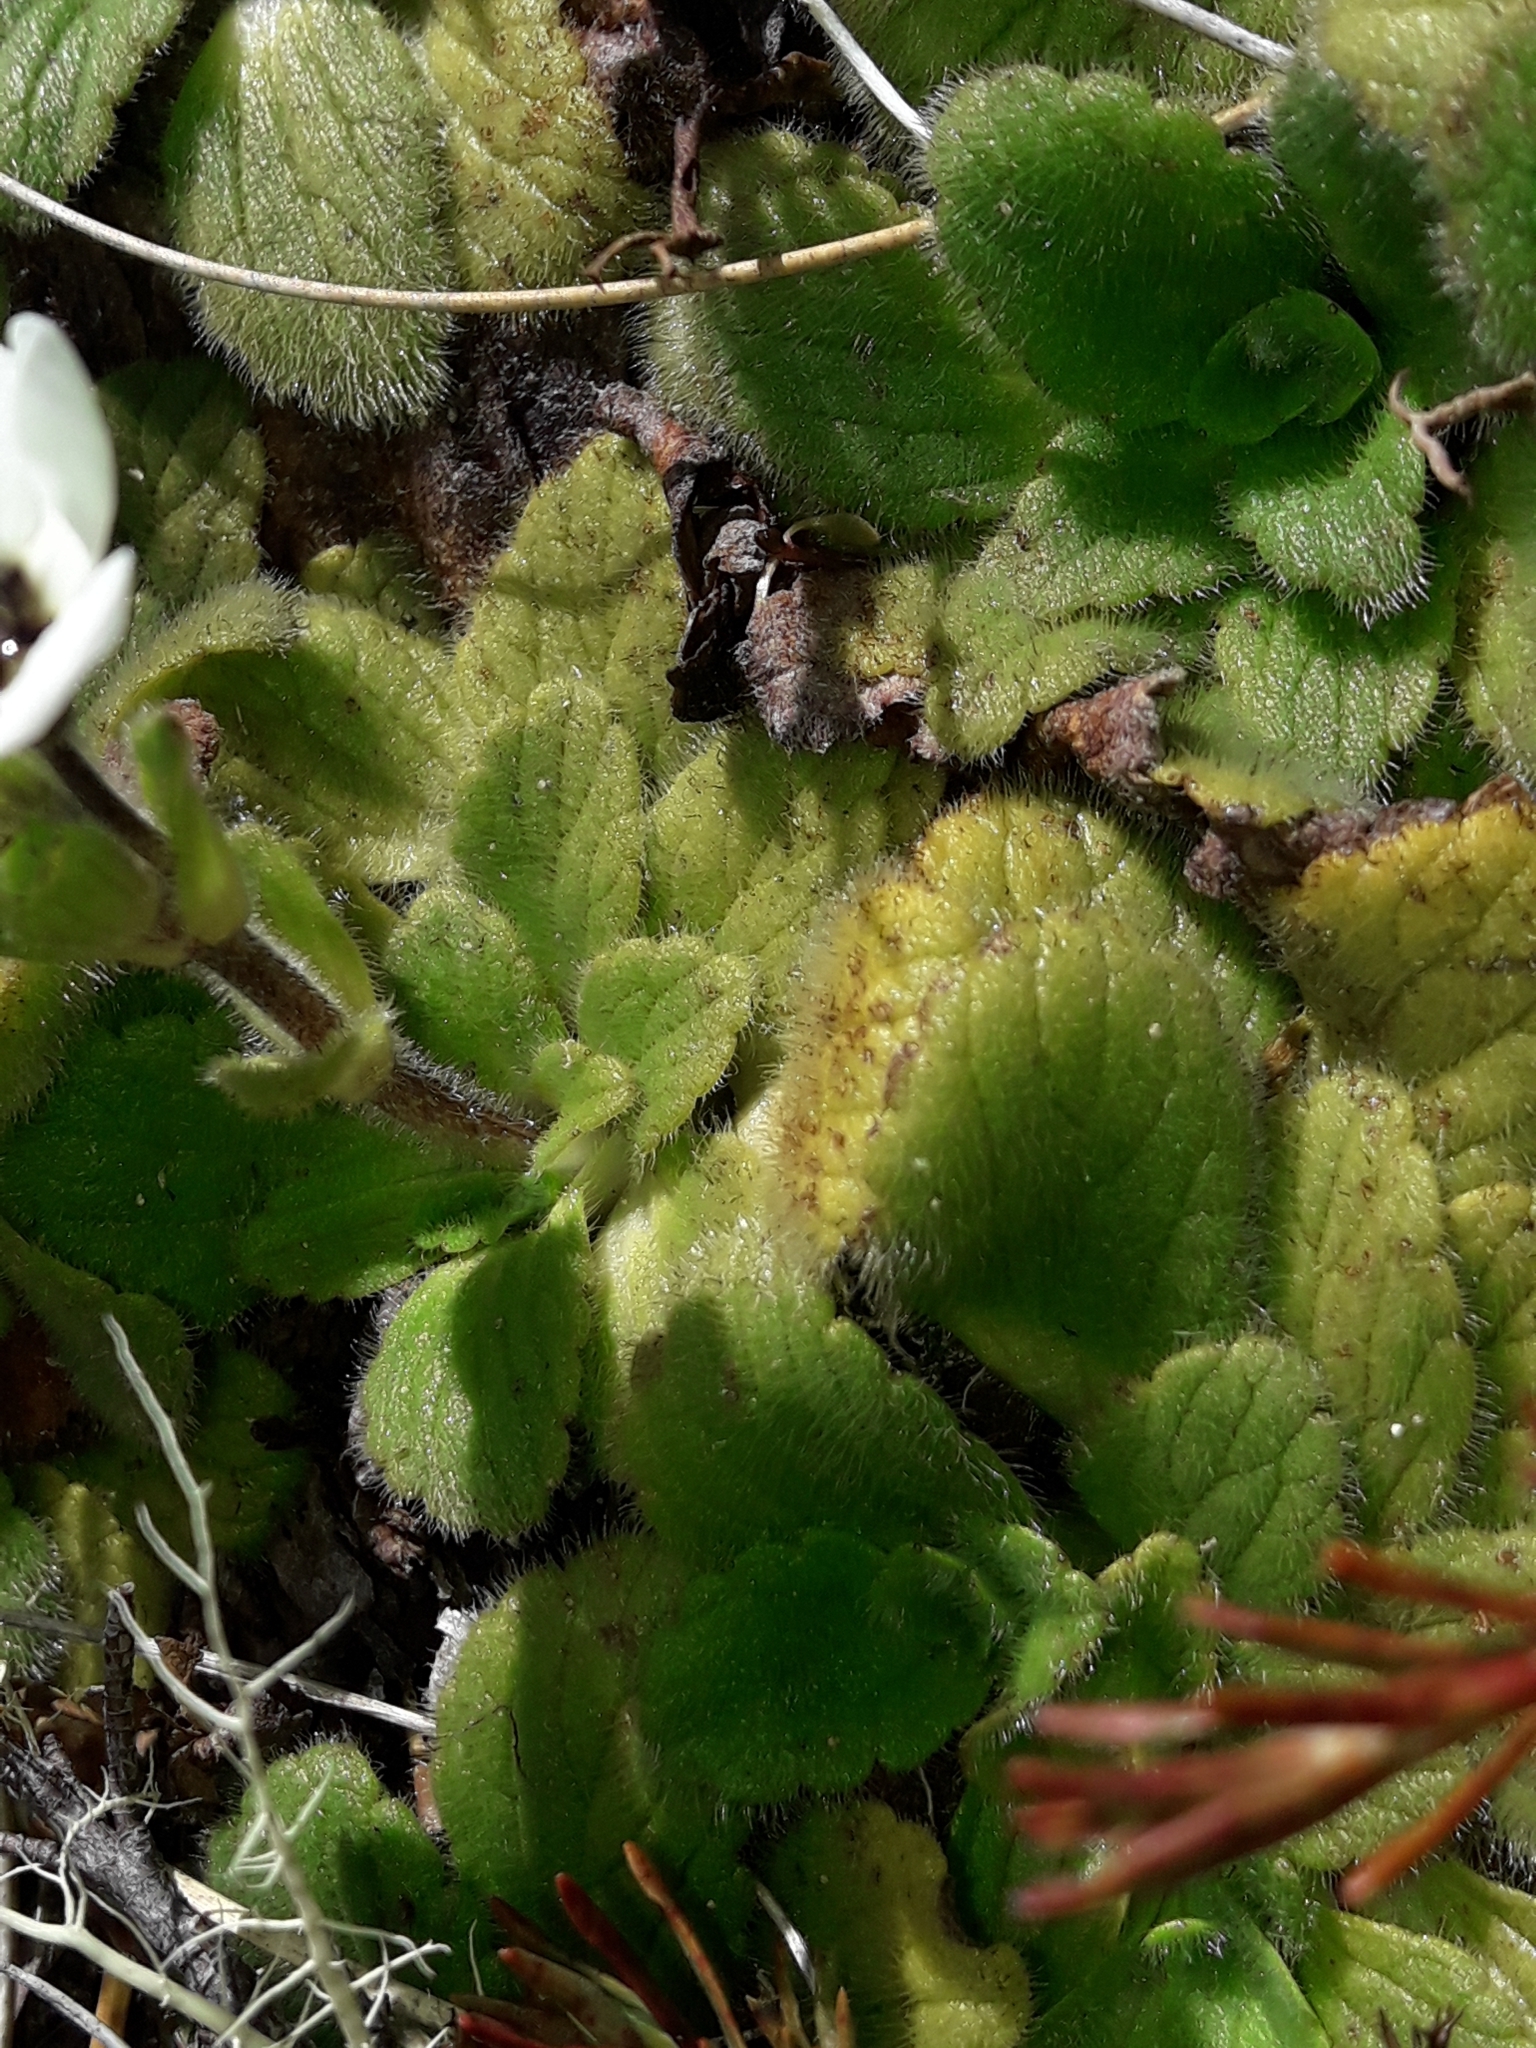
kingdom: Plantae
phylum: Tracheophyta
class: Magnoliopsida
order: Lamiales
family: Plantaginaceae
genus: Ourisia
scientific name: Ourisia simpsonii
